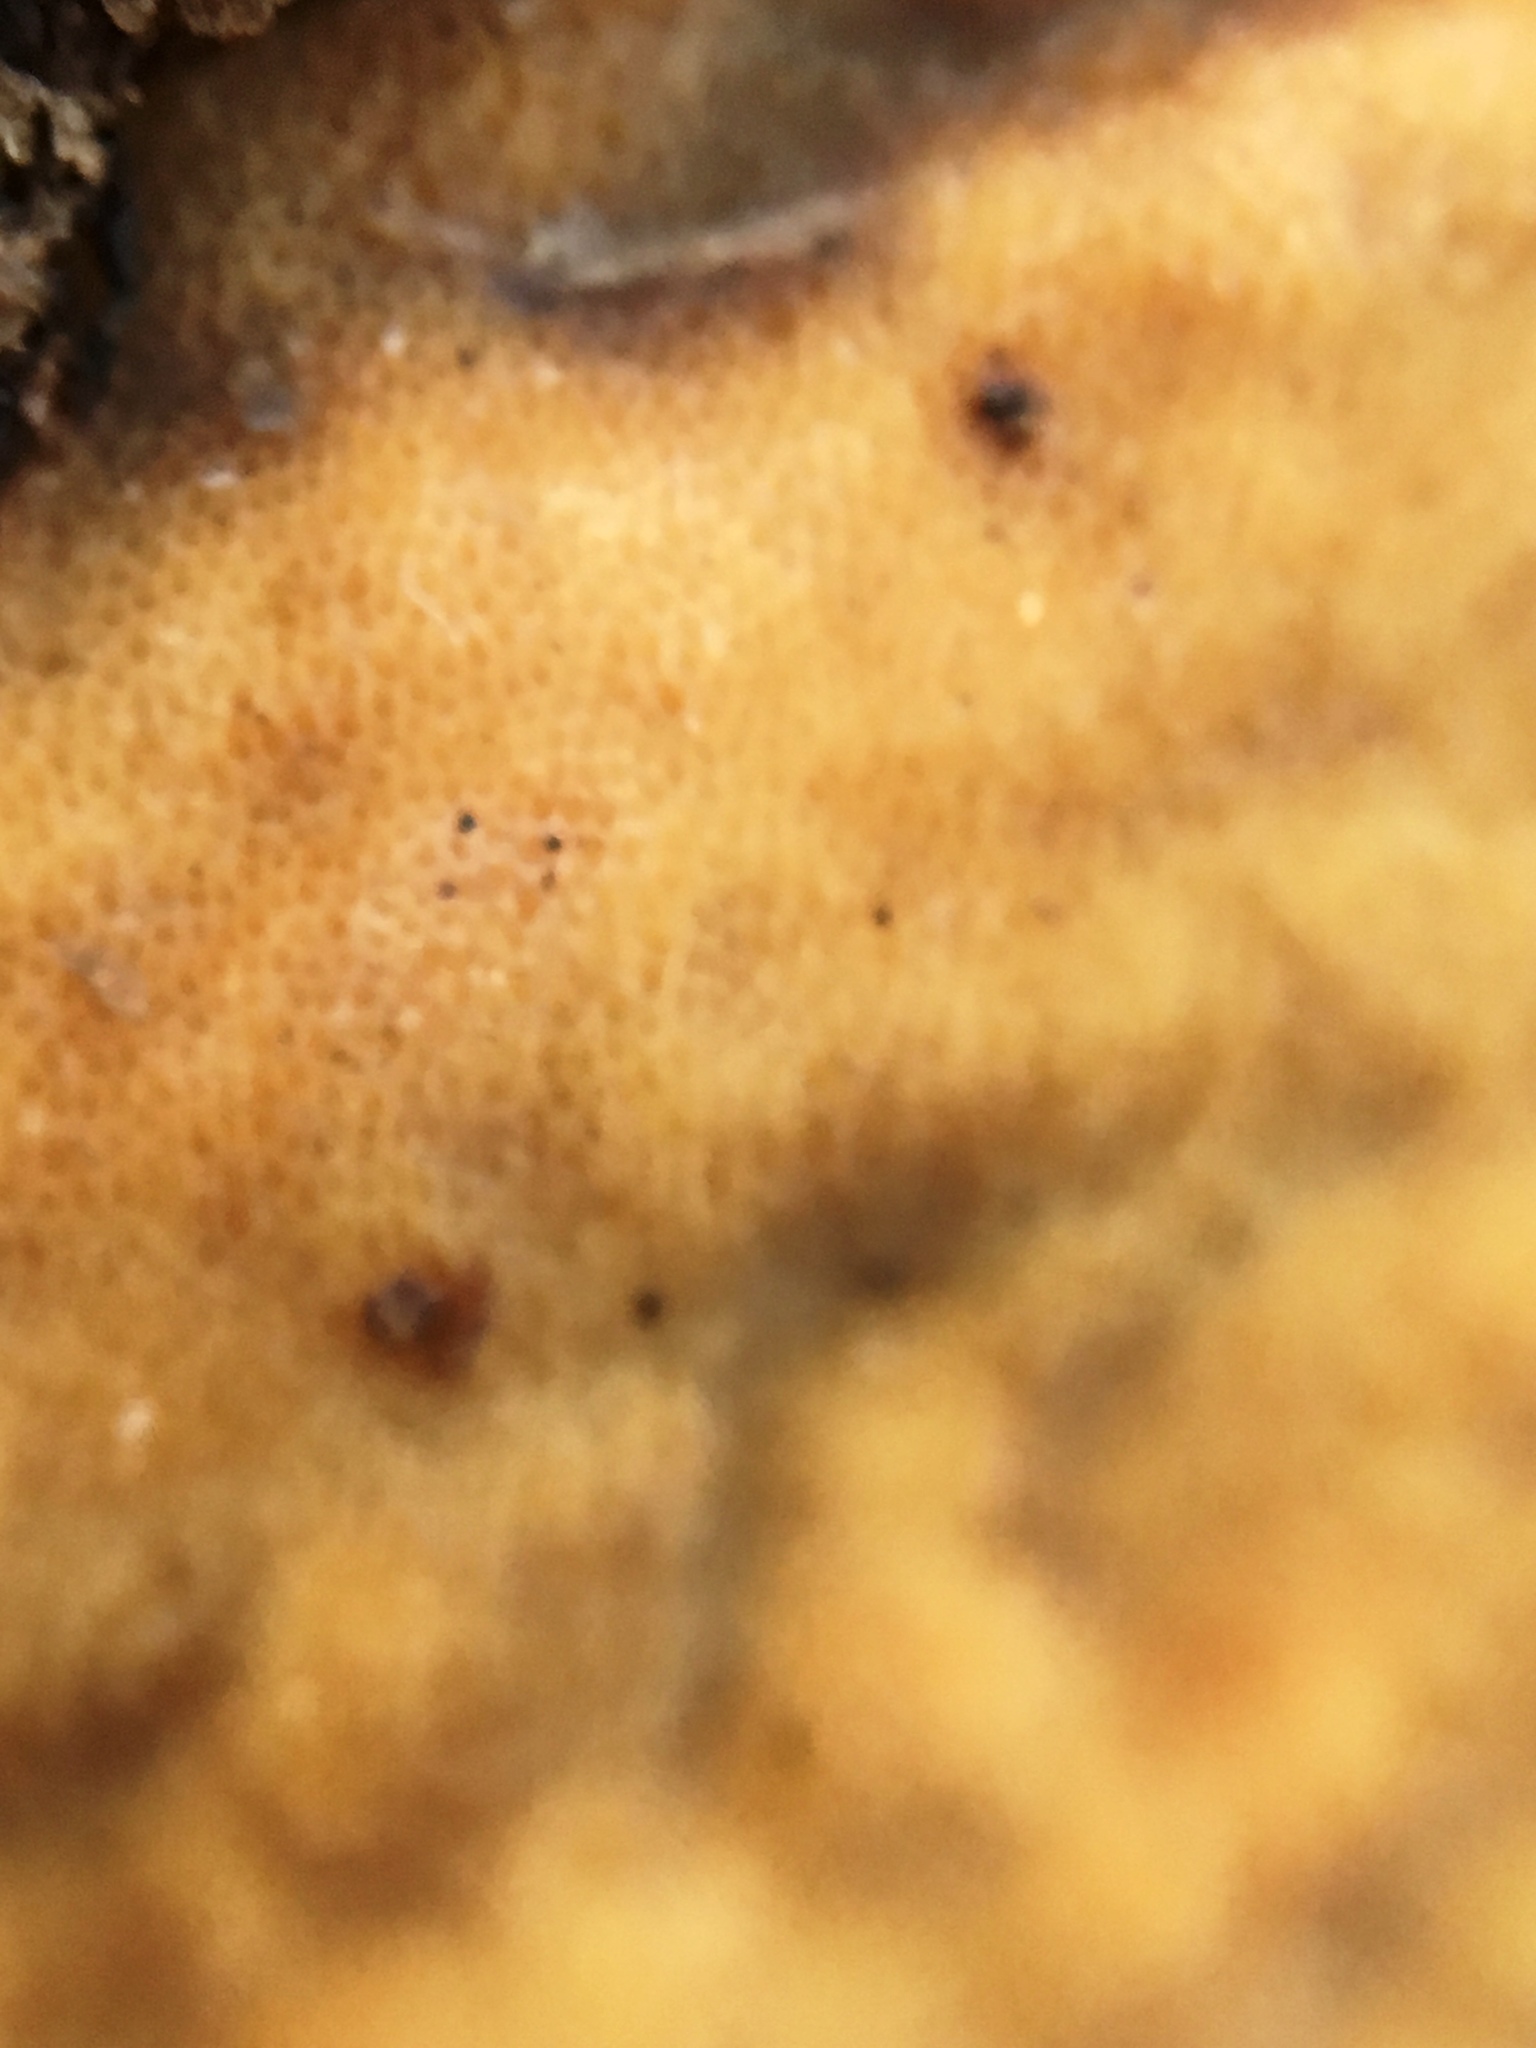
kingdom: Fungi
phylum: Ascomycota
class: Sordariomycetes
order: Hypocreales
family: Hypocreaceae
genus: Trichoderma
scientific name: Trichoderma sulphureum
